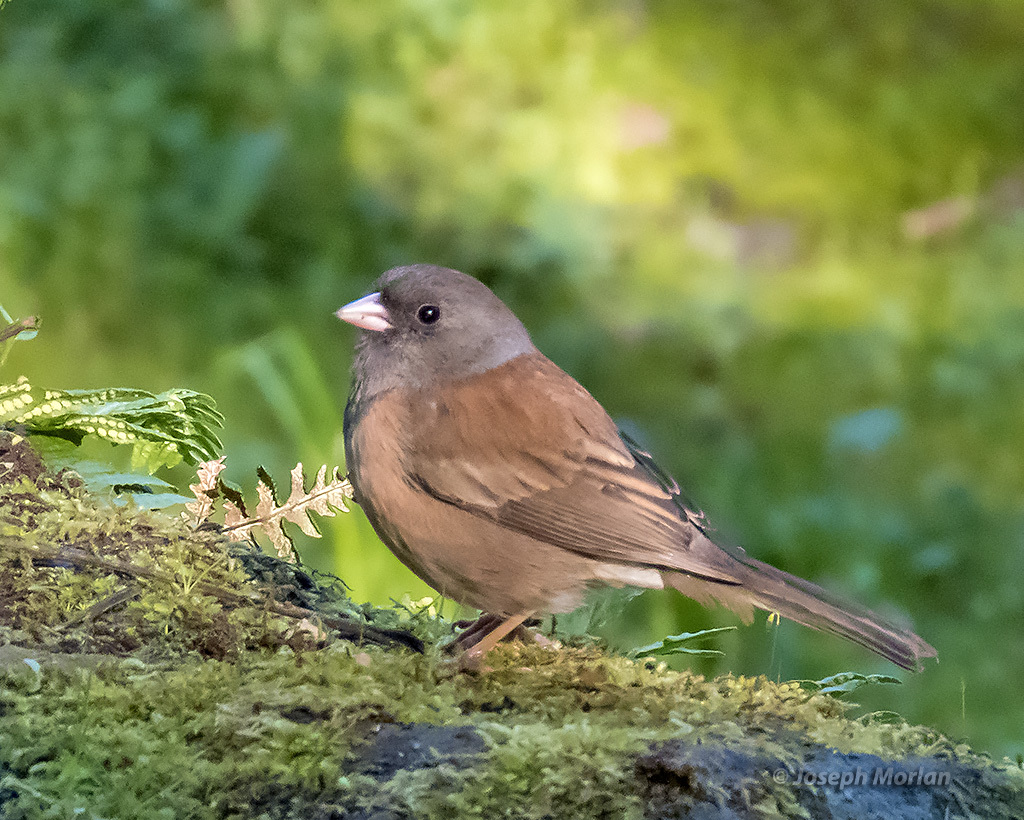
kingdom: Animalia
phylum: Chordata
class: Aves
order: Passeriformes
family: Passerellidae
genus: Junco
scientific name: Junco hyemalis
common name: Dark-eyed junco
